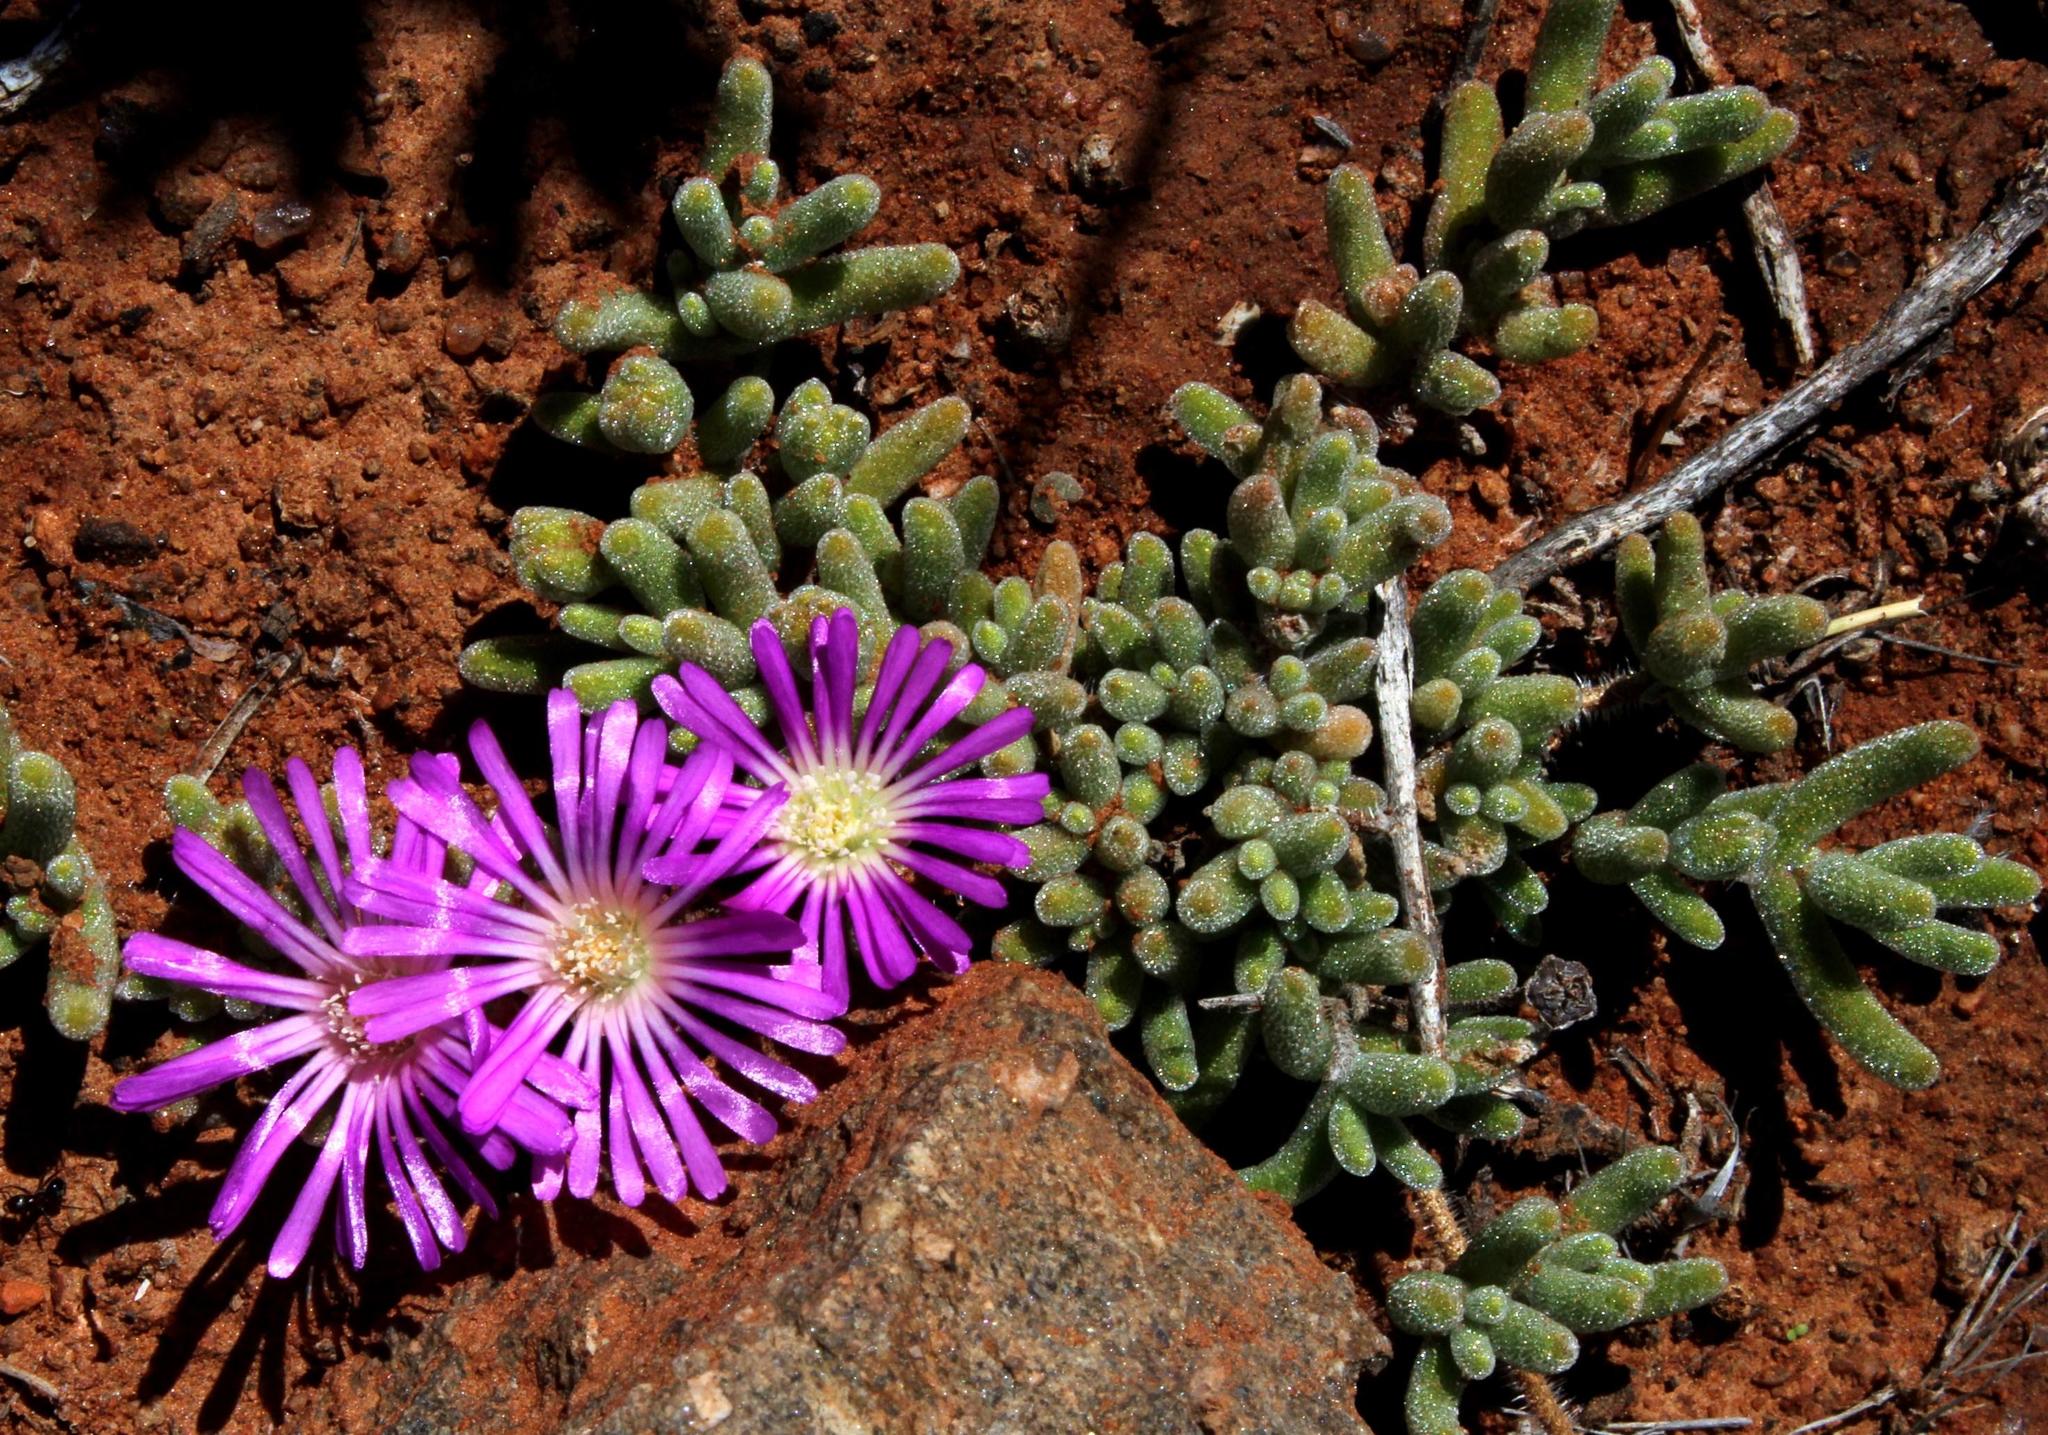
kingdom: Plantae
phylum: Tracheophyta
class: Magnoliopsida
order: Caryophyllales
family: Aizoaceae
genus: Drosanthemum
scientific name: Drosanthemum oculatum
